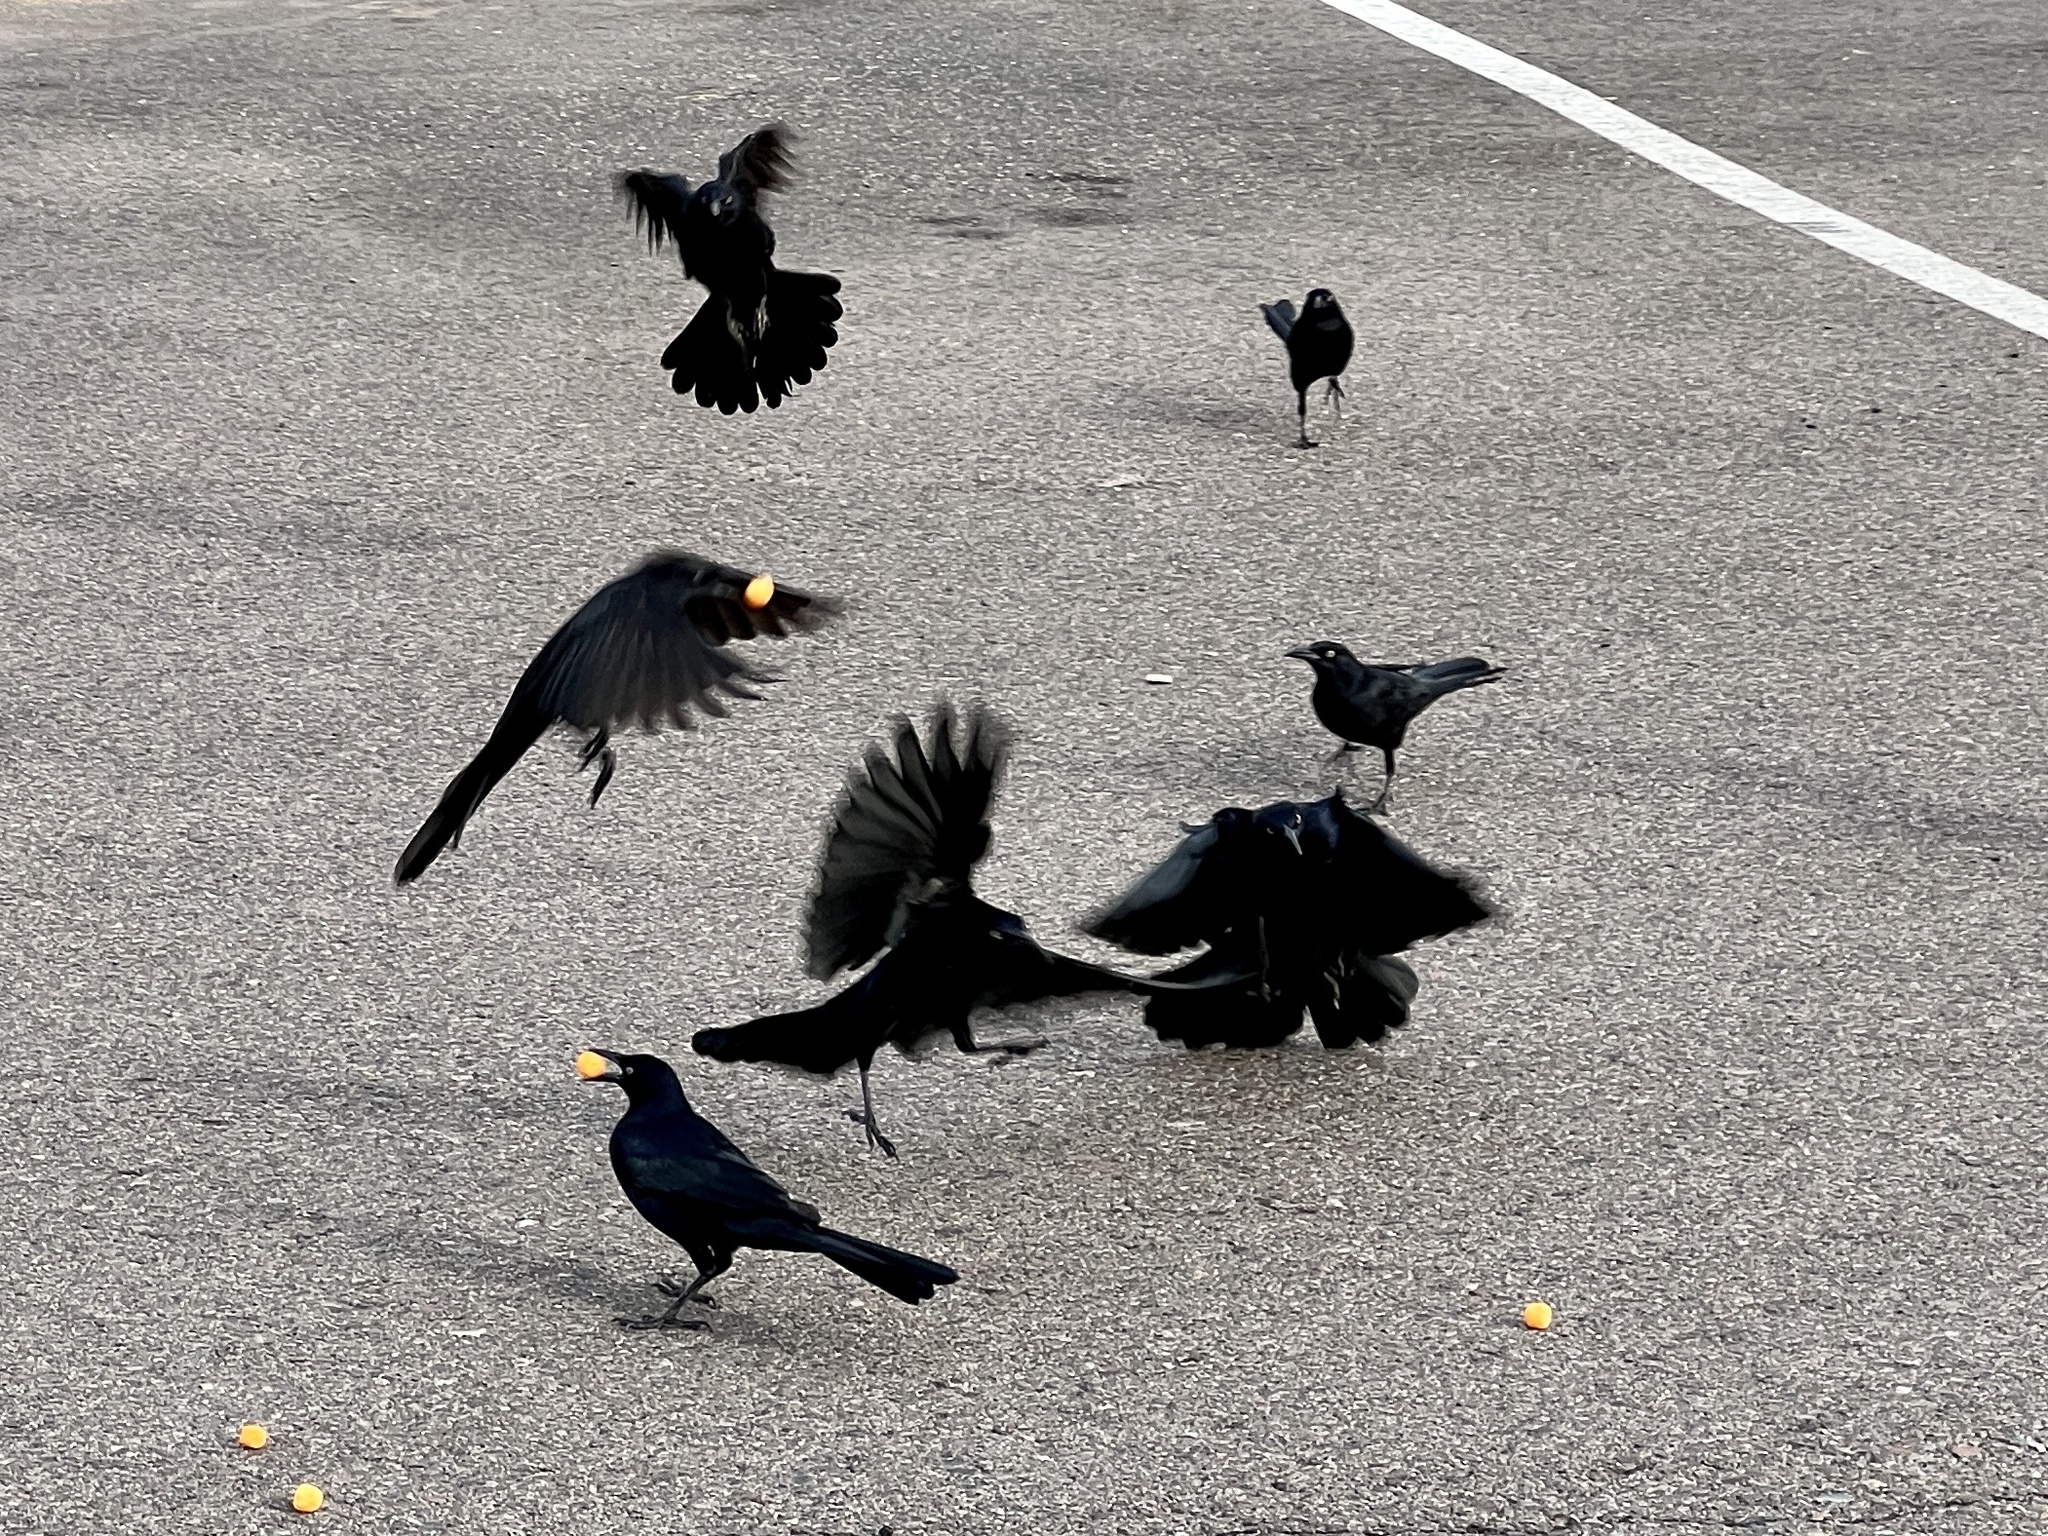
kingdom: Animalia
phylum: Chordata
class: Aves
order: Passeriformes
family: Icteridae
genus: Quiscalus
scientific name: Quiscalus mexicanus
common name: Great-tailed grackle
